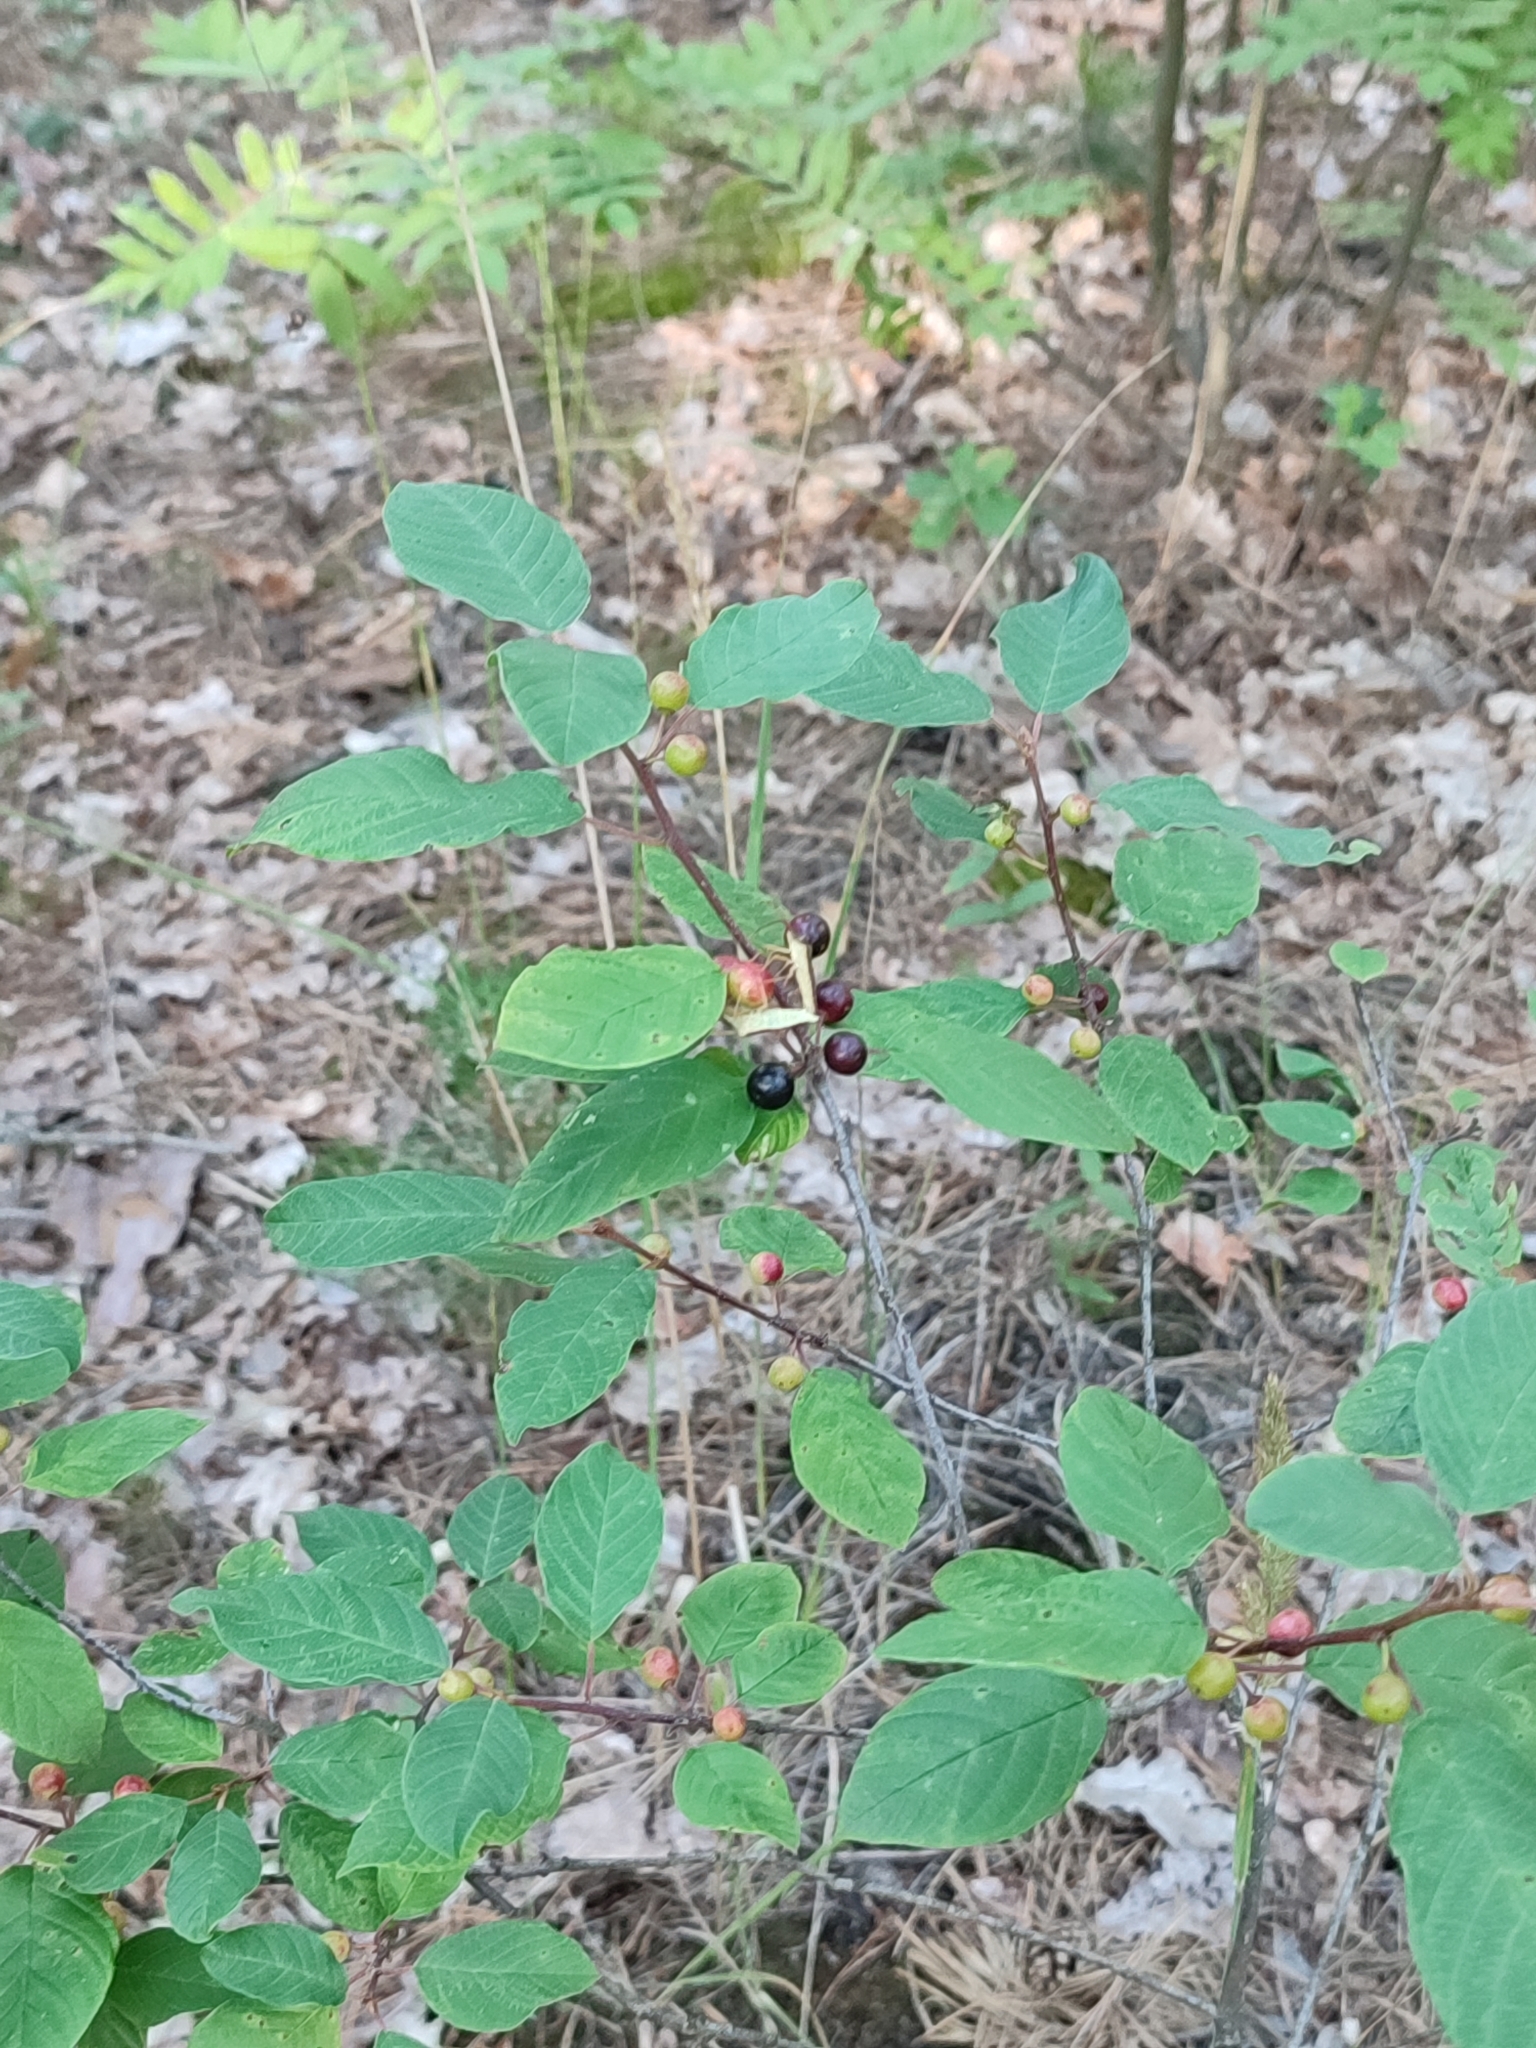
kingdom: Plantae
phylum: Tracheophyta
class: Magnoliopsida
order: Rosales
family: Rhamnaceae
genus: Frangula
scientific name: Frangula alnus
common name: Alder buckthorn
